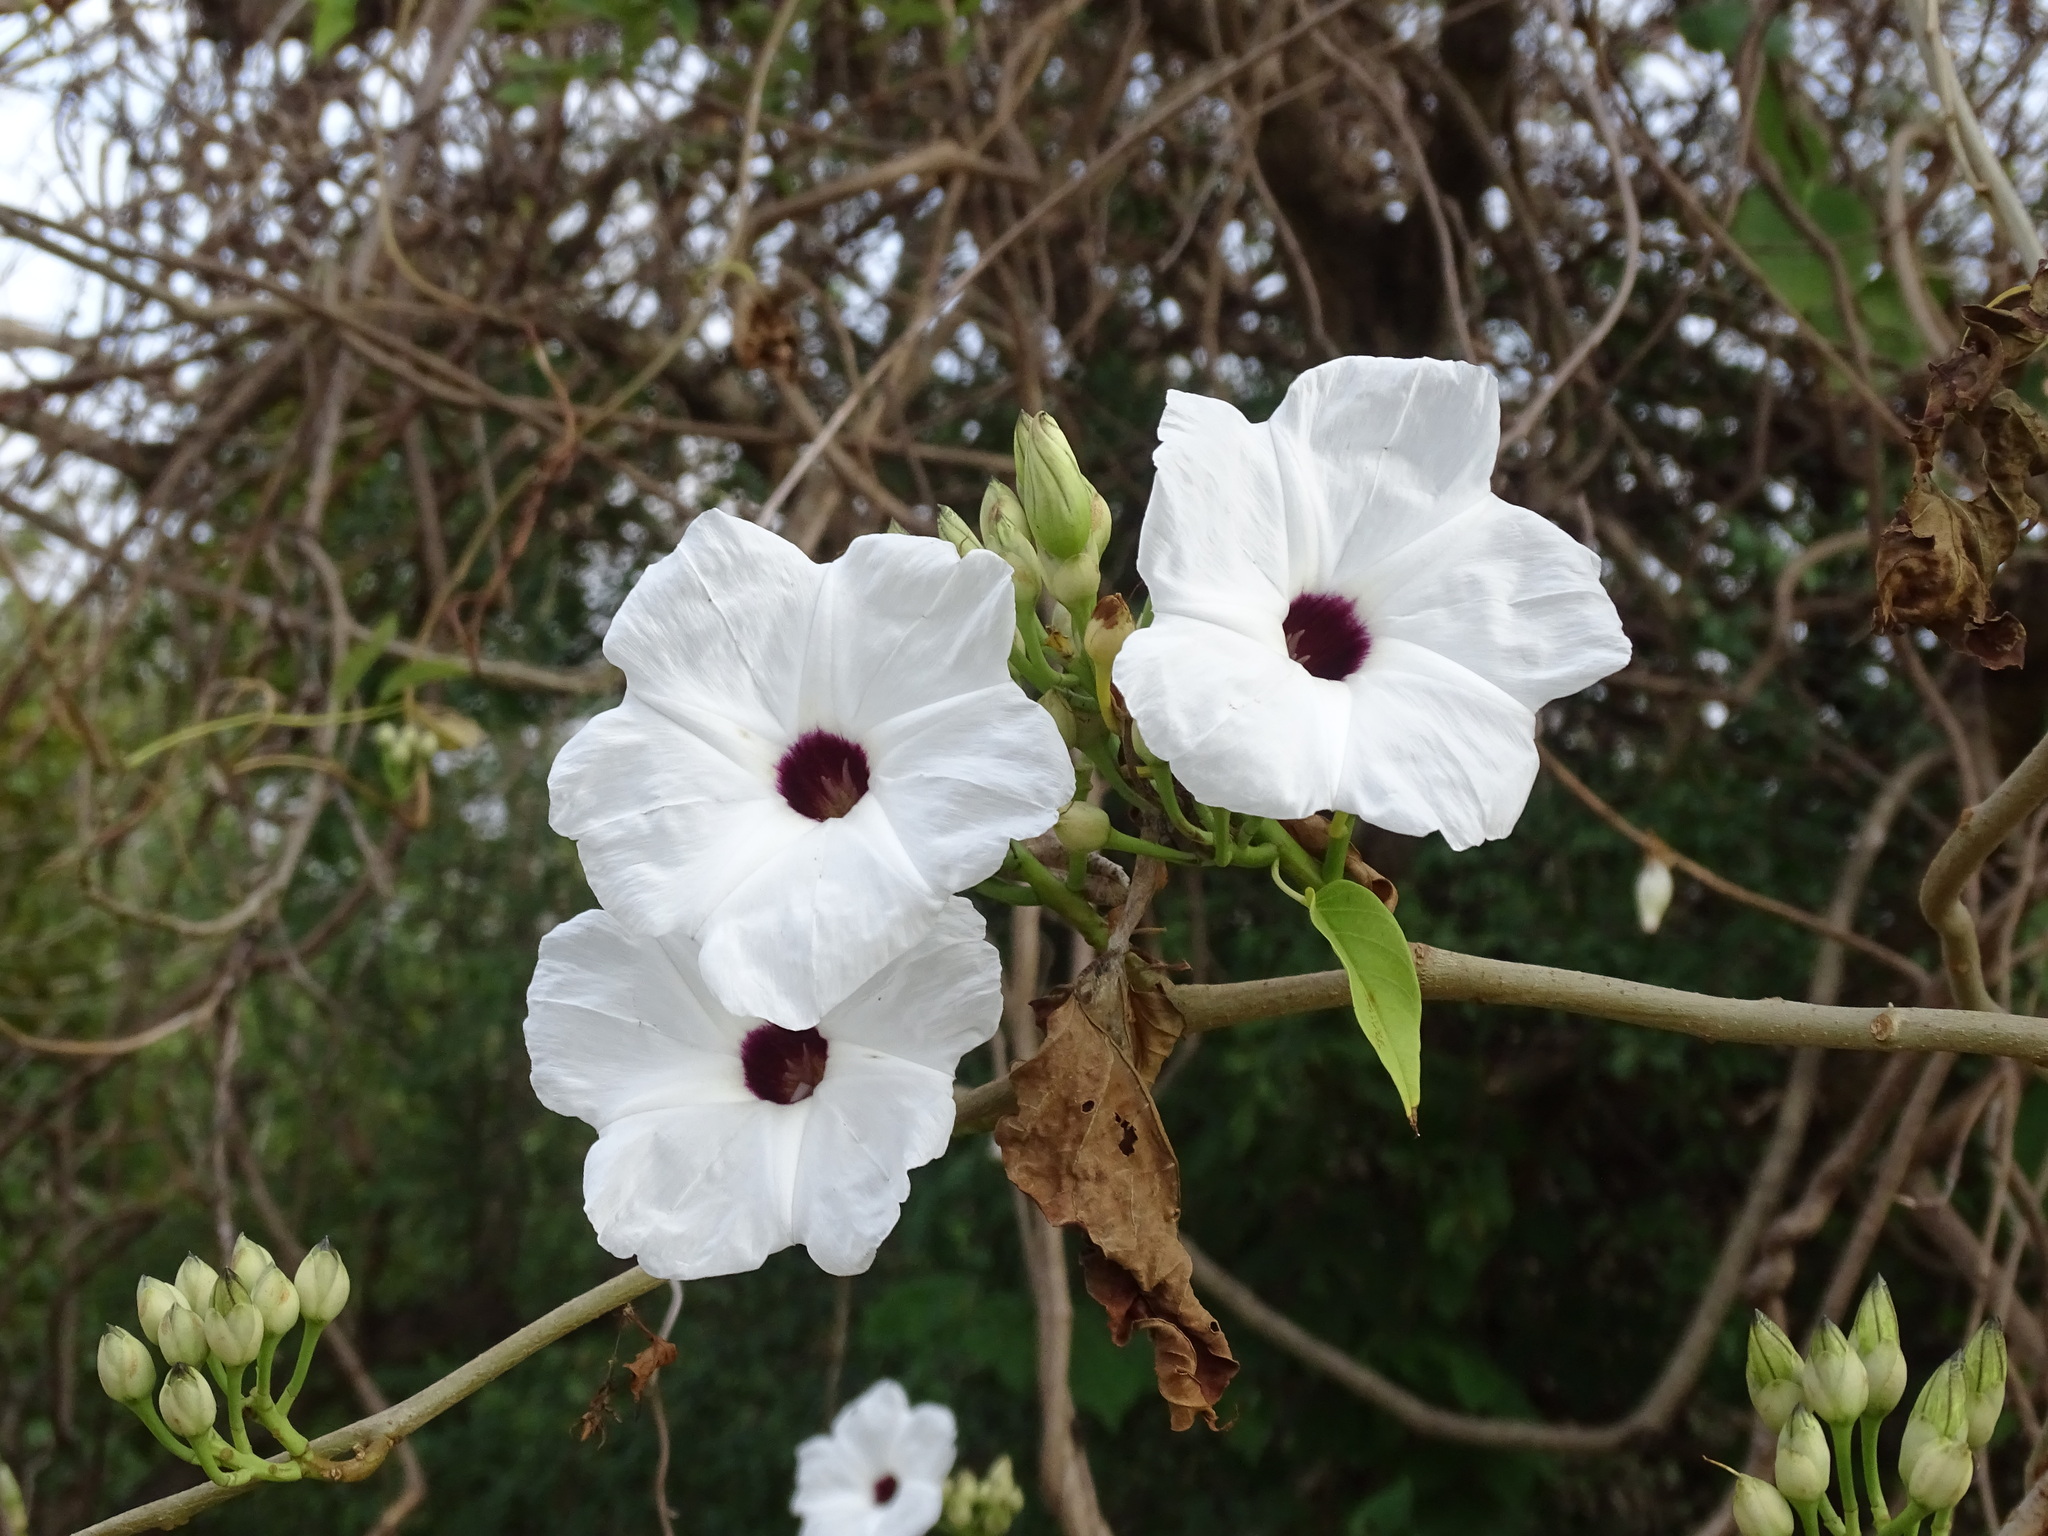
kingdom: Plantae
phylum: Tracheophyta
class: Magnoliopsida
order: Solanales
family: Convolvulaceae
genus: Ipomoea
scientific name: Ipomoea populina
